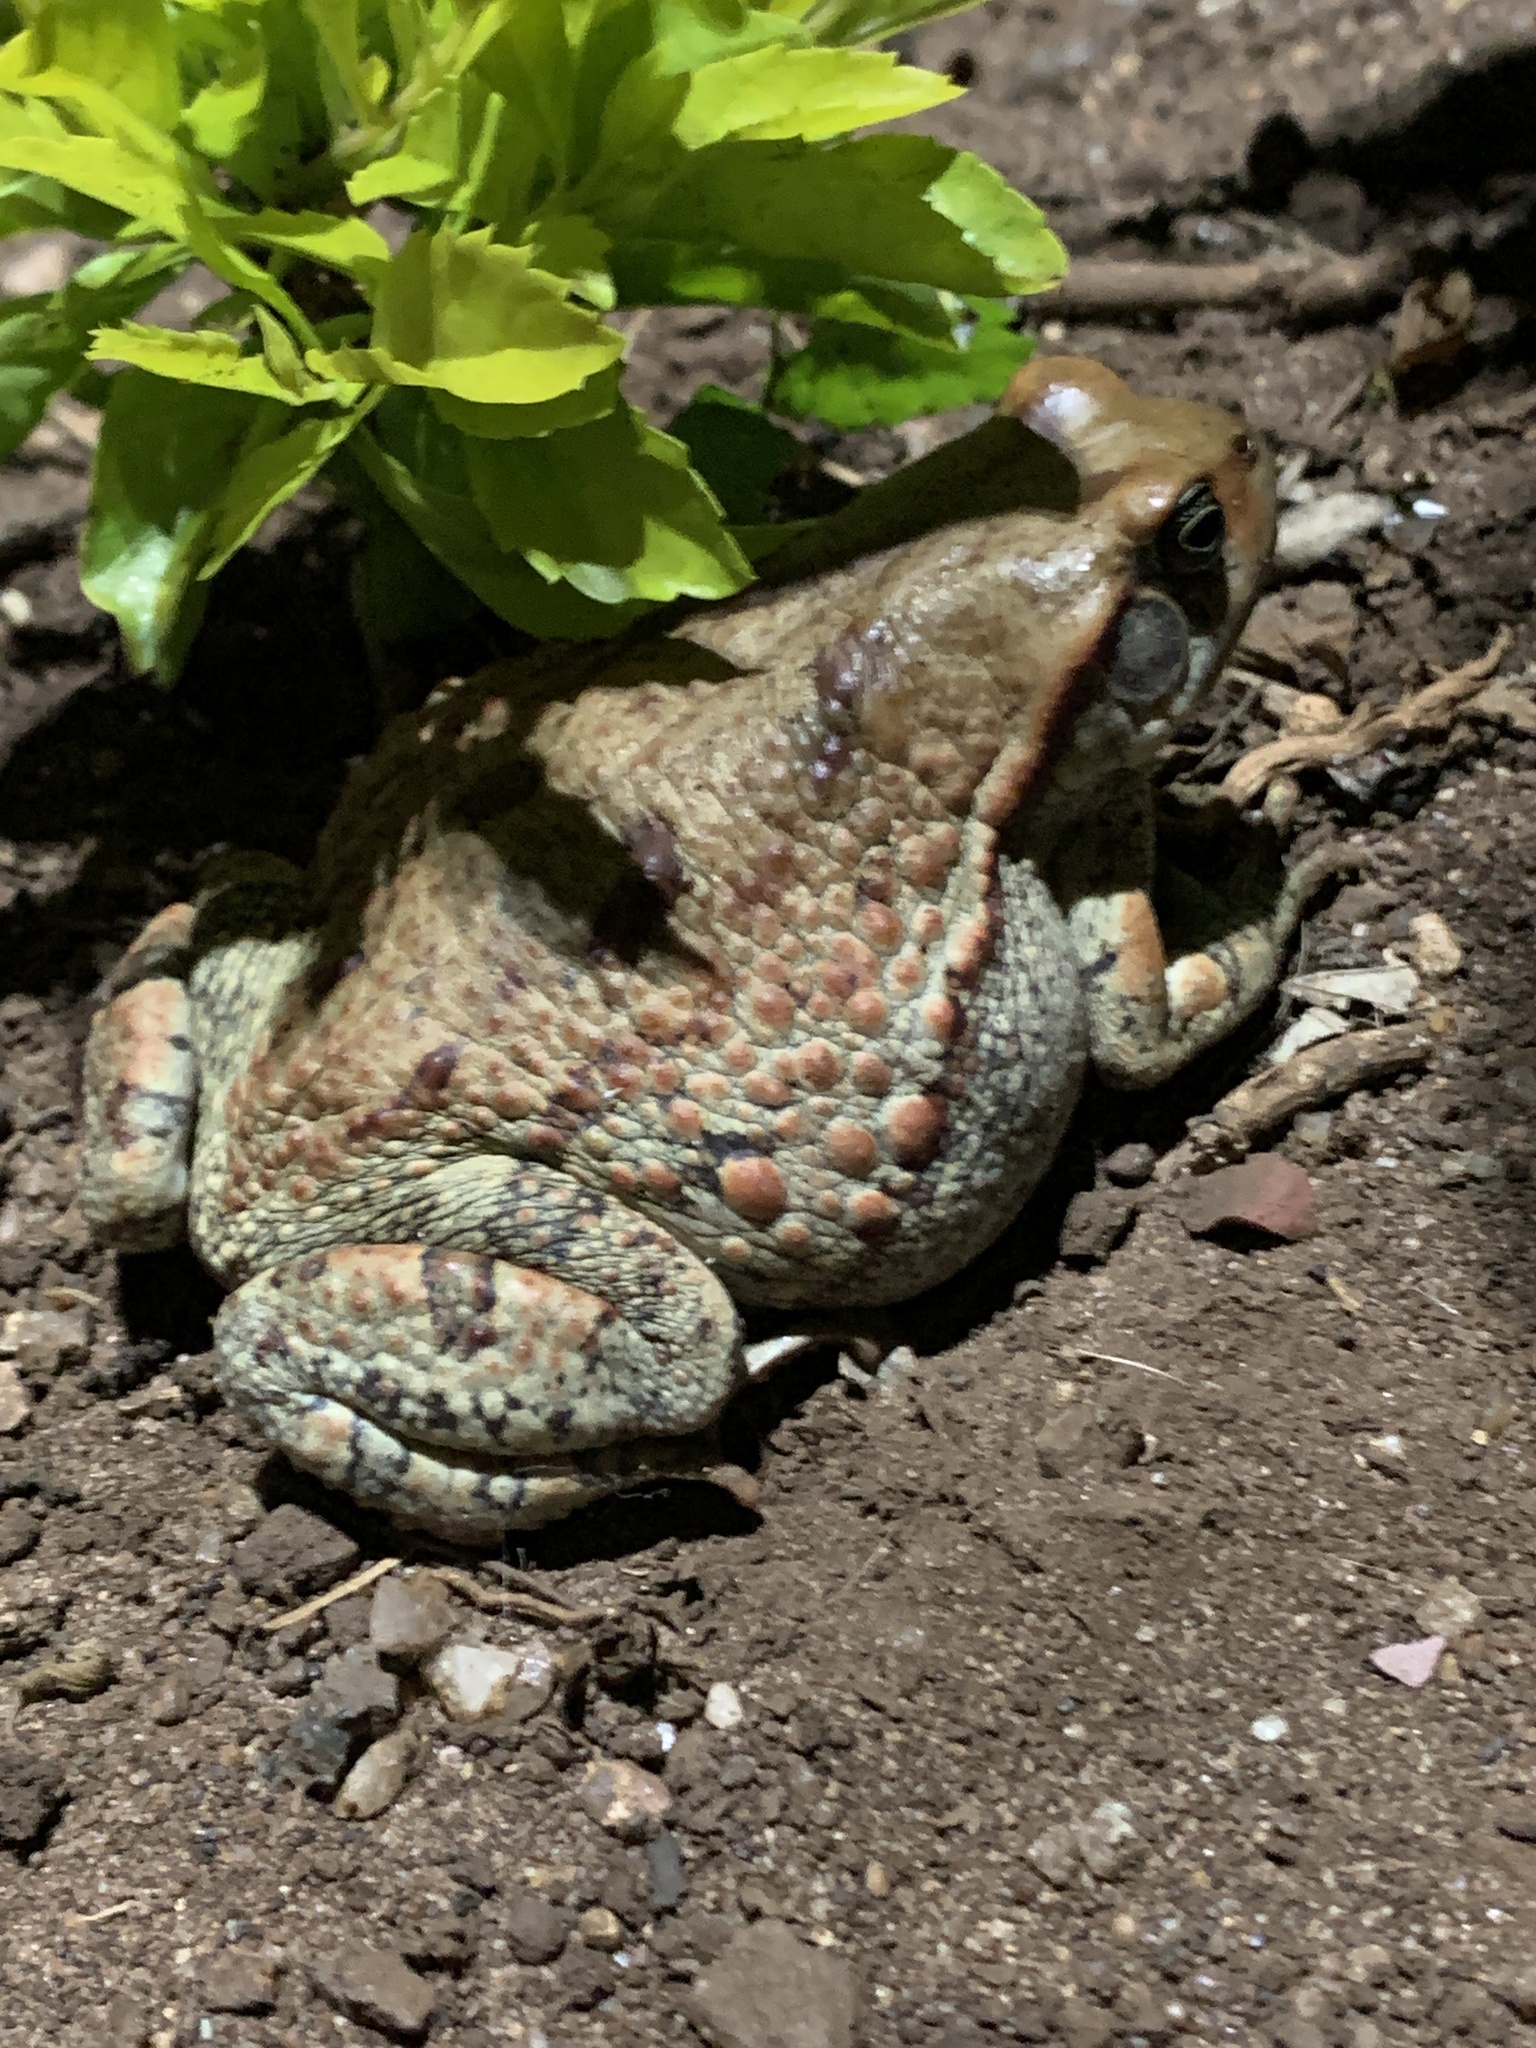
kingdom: Animalia
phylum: Chordata
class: Amphibia
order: Anura
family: Bufonidae
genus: Schismaderma
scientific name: Schismaderma carens
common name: African split-skin toad
